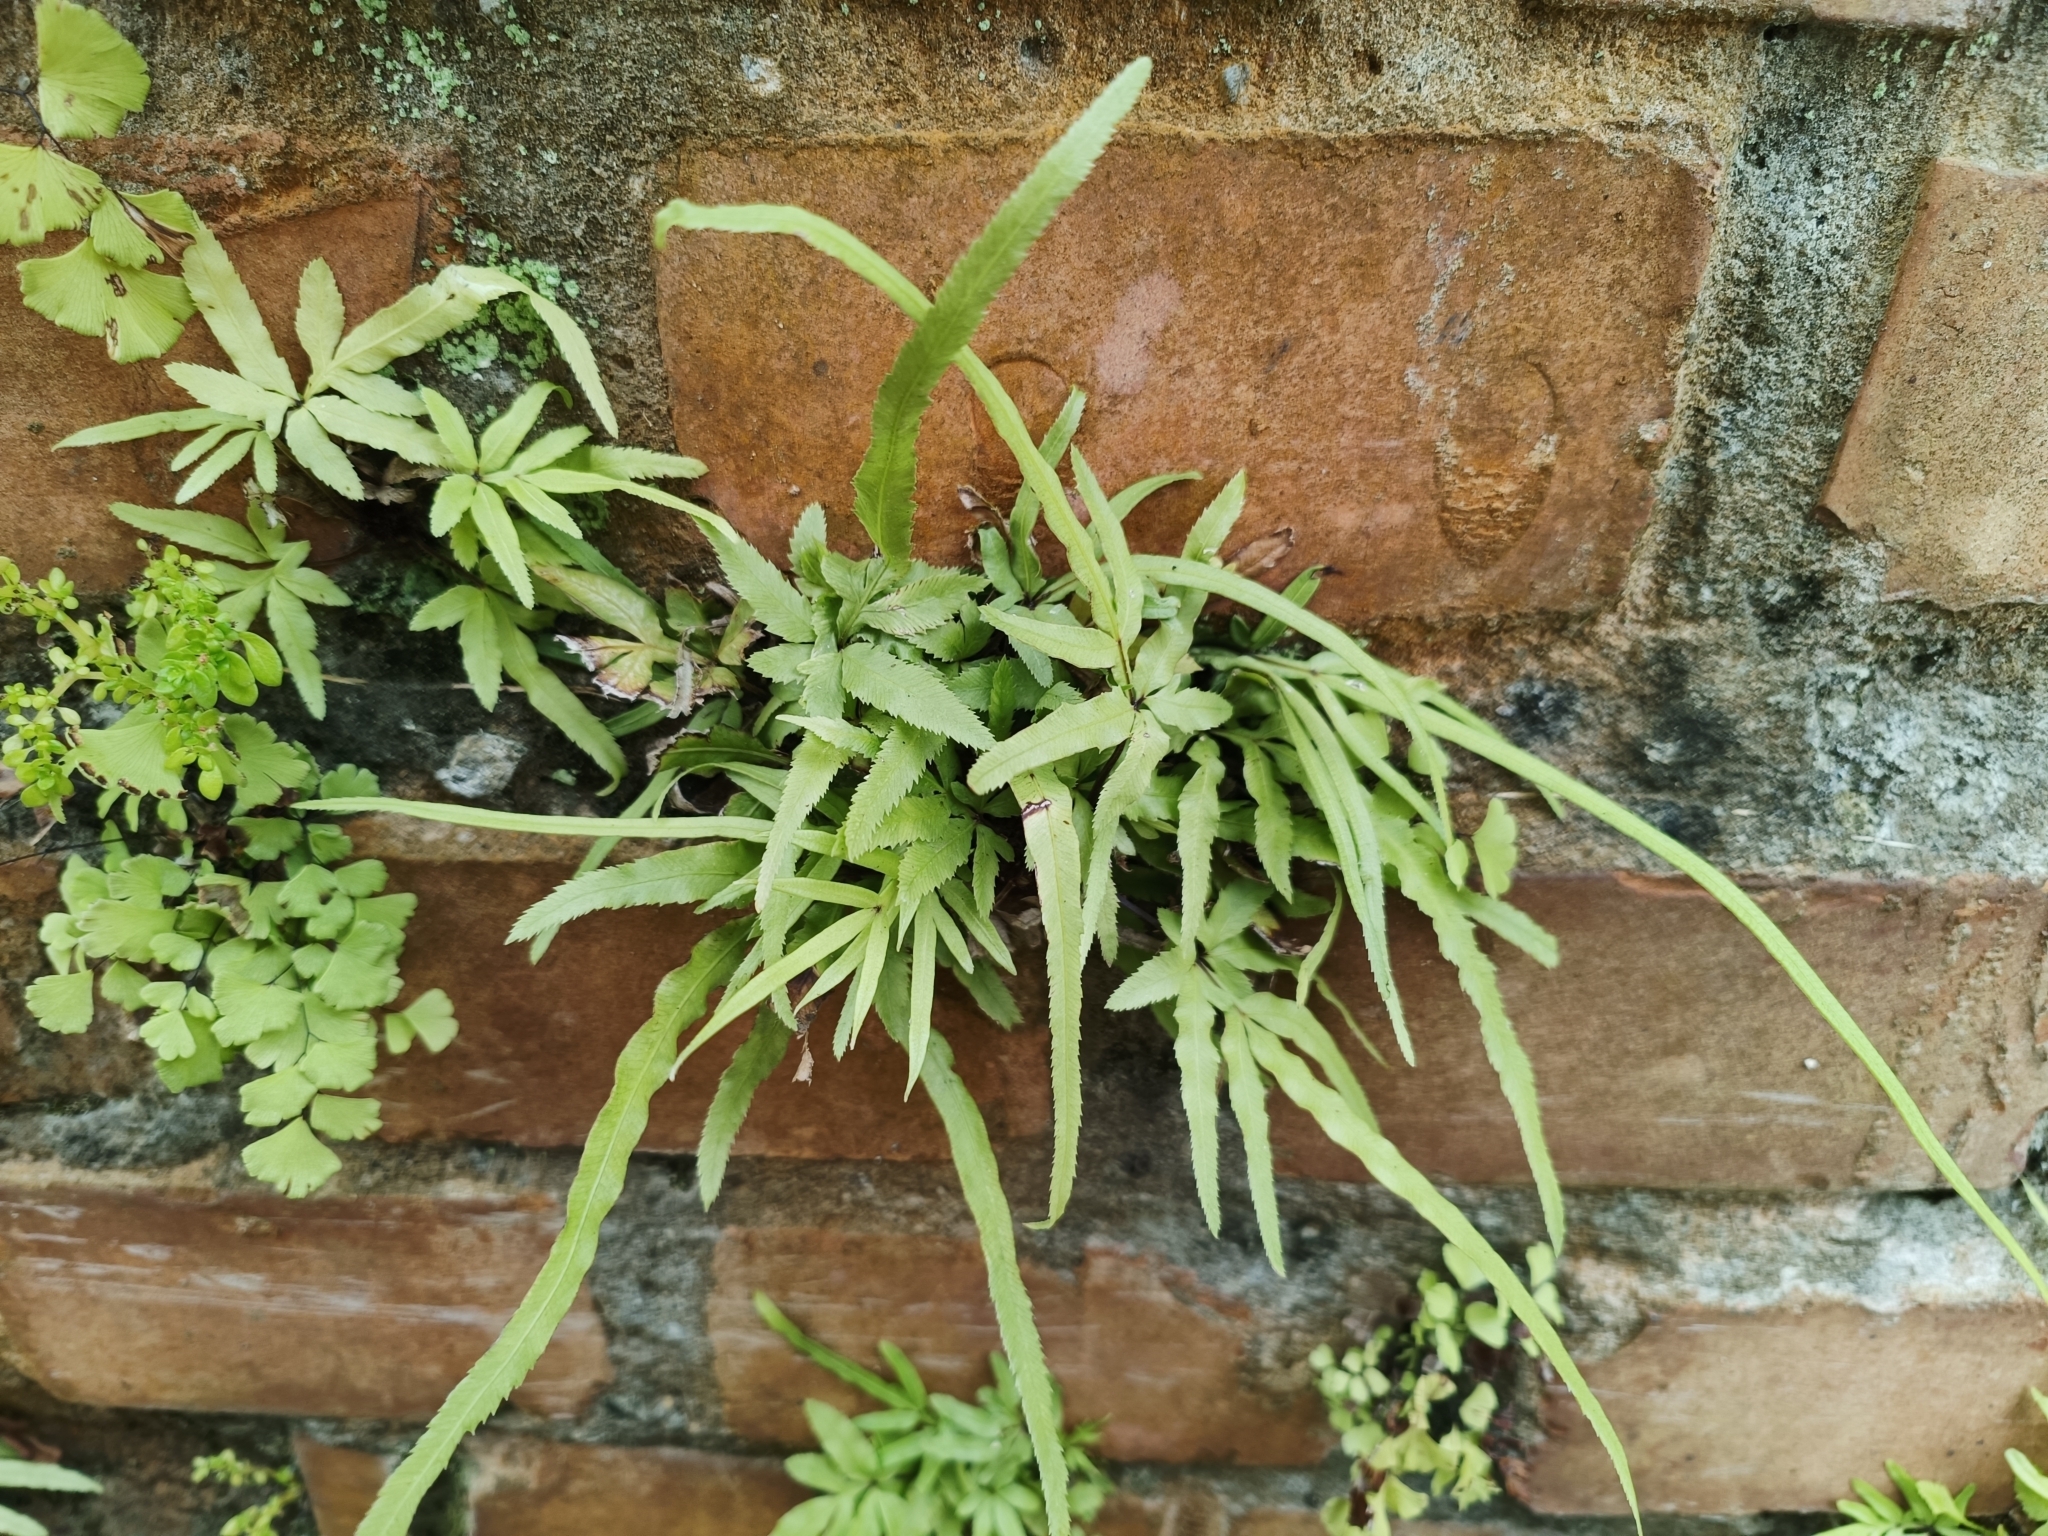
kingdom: Plantae
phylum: Tracheophyta
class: Polypodiopsida
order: Polypodiales
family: Pteridaceae
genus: Pteris
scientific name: Pteris multifida
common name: Spider brake
